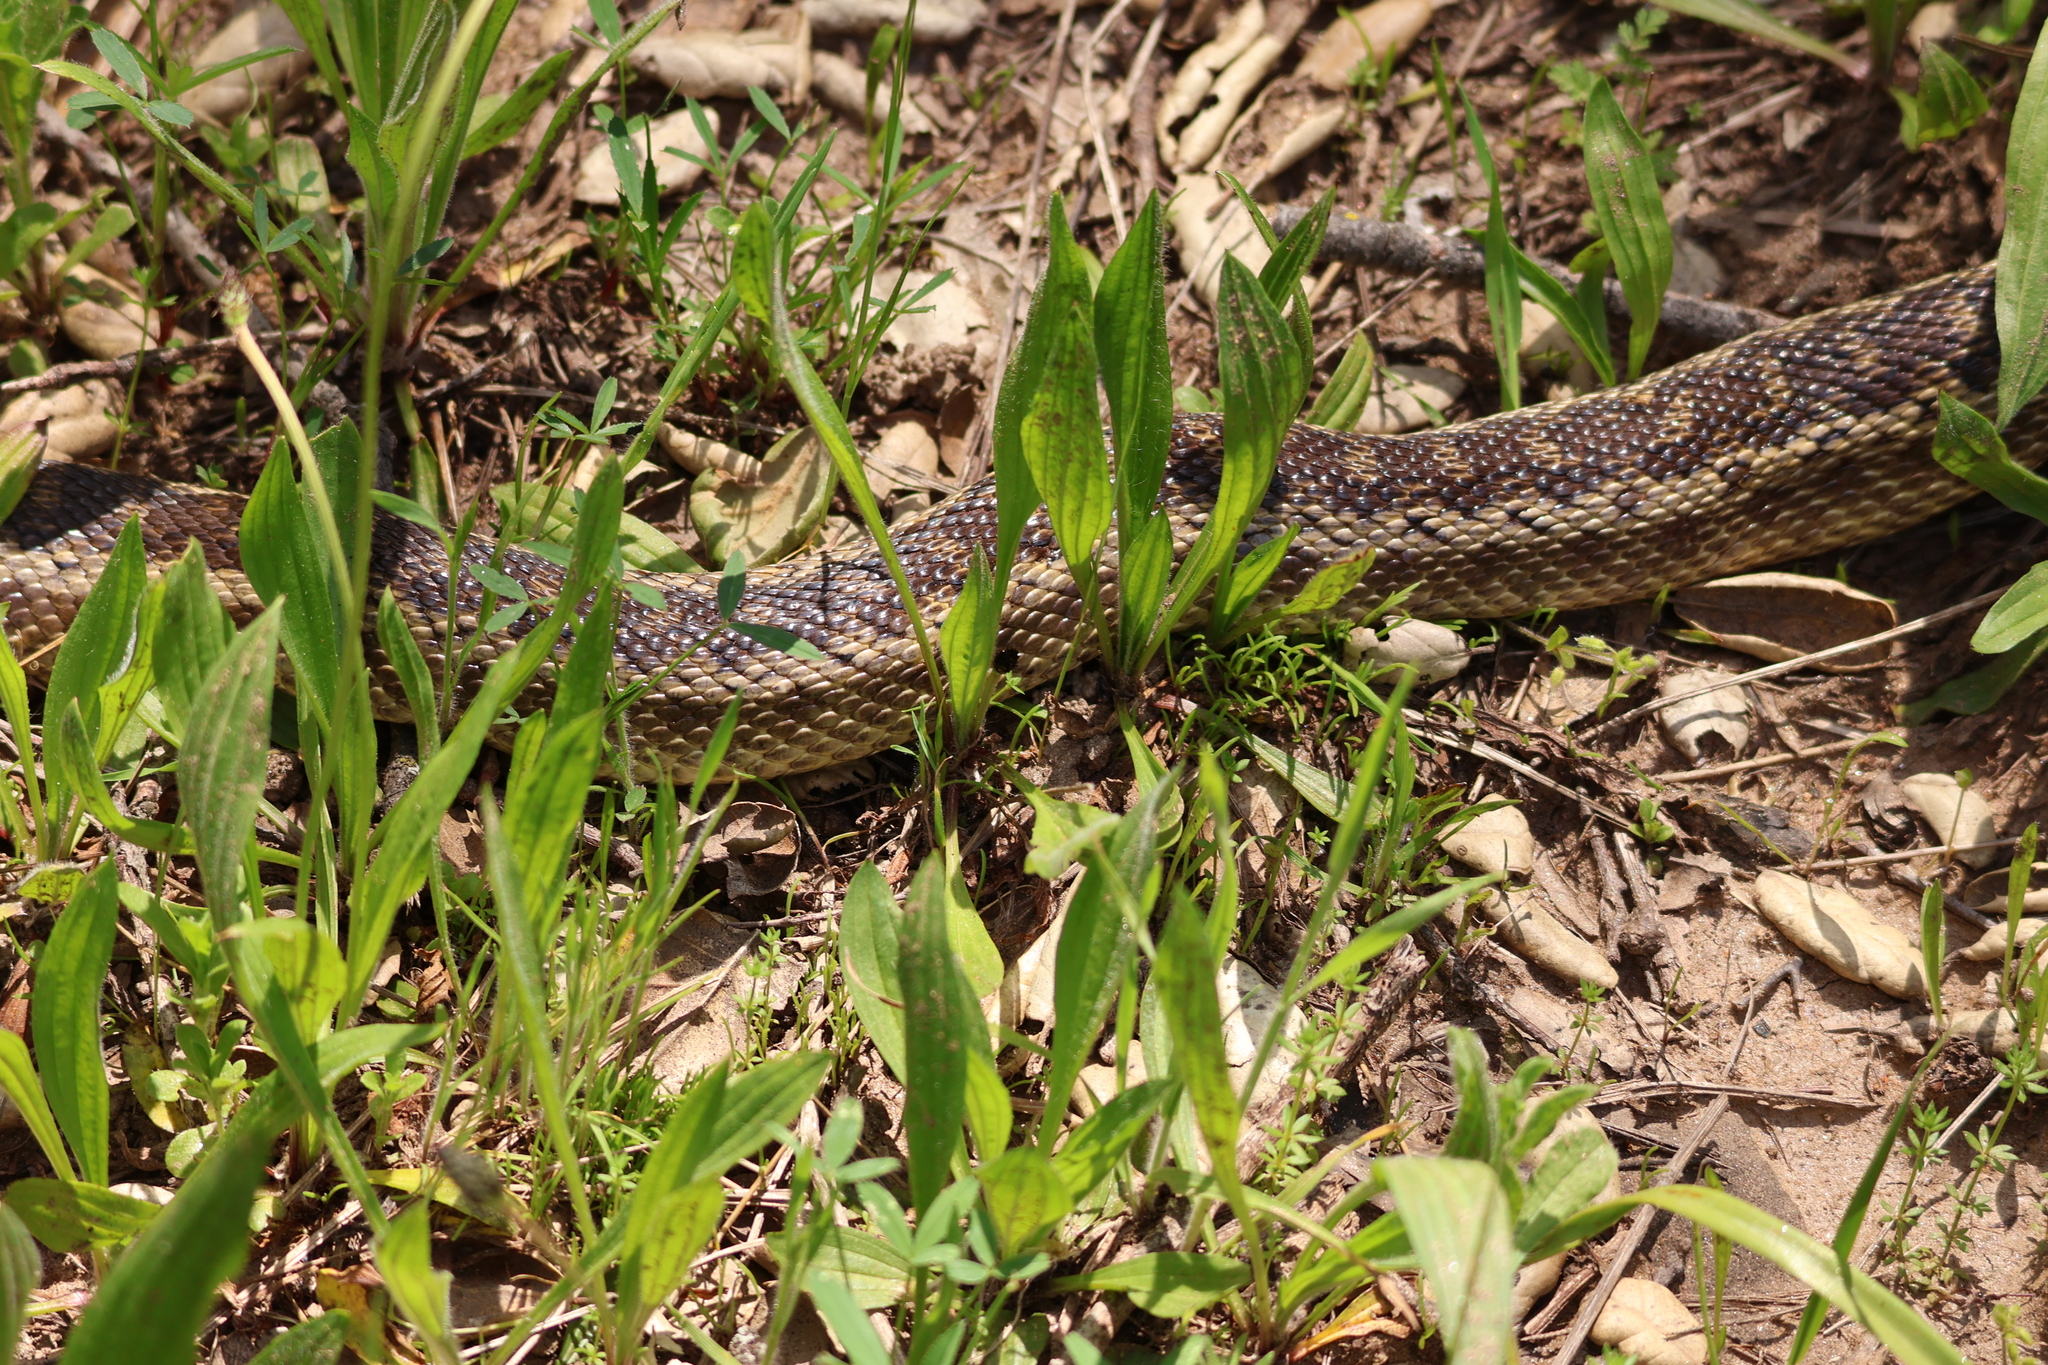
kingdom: Animalia
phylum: Chordata
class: Squamata
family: Colubridae
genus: Pituophis
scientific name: Pituophis catenifer
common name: Gopher snake
